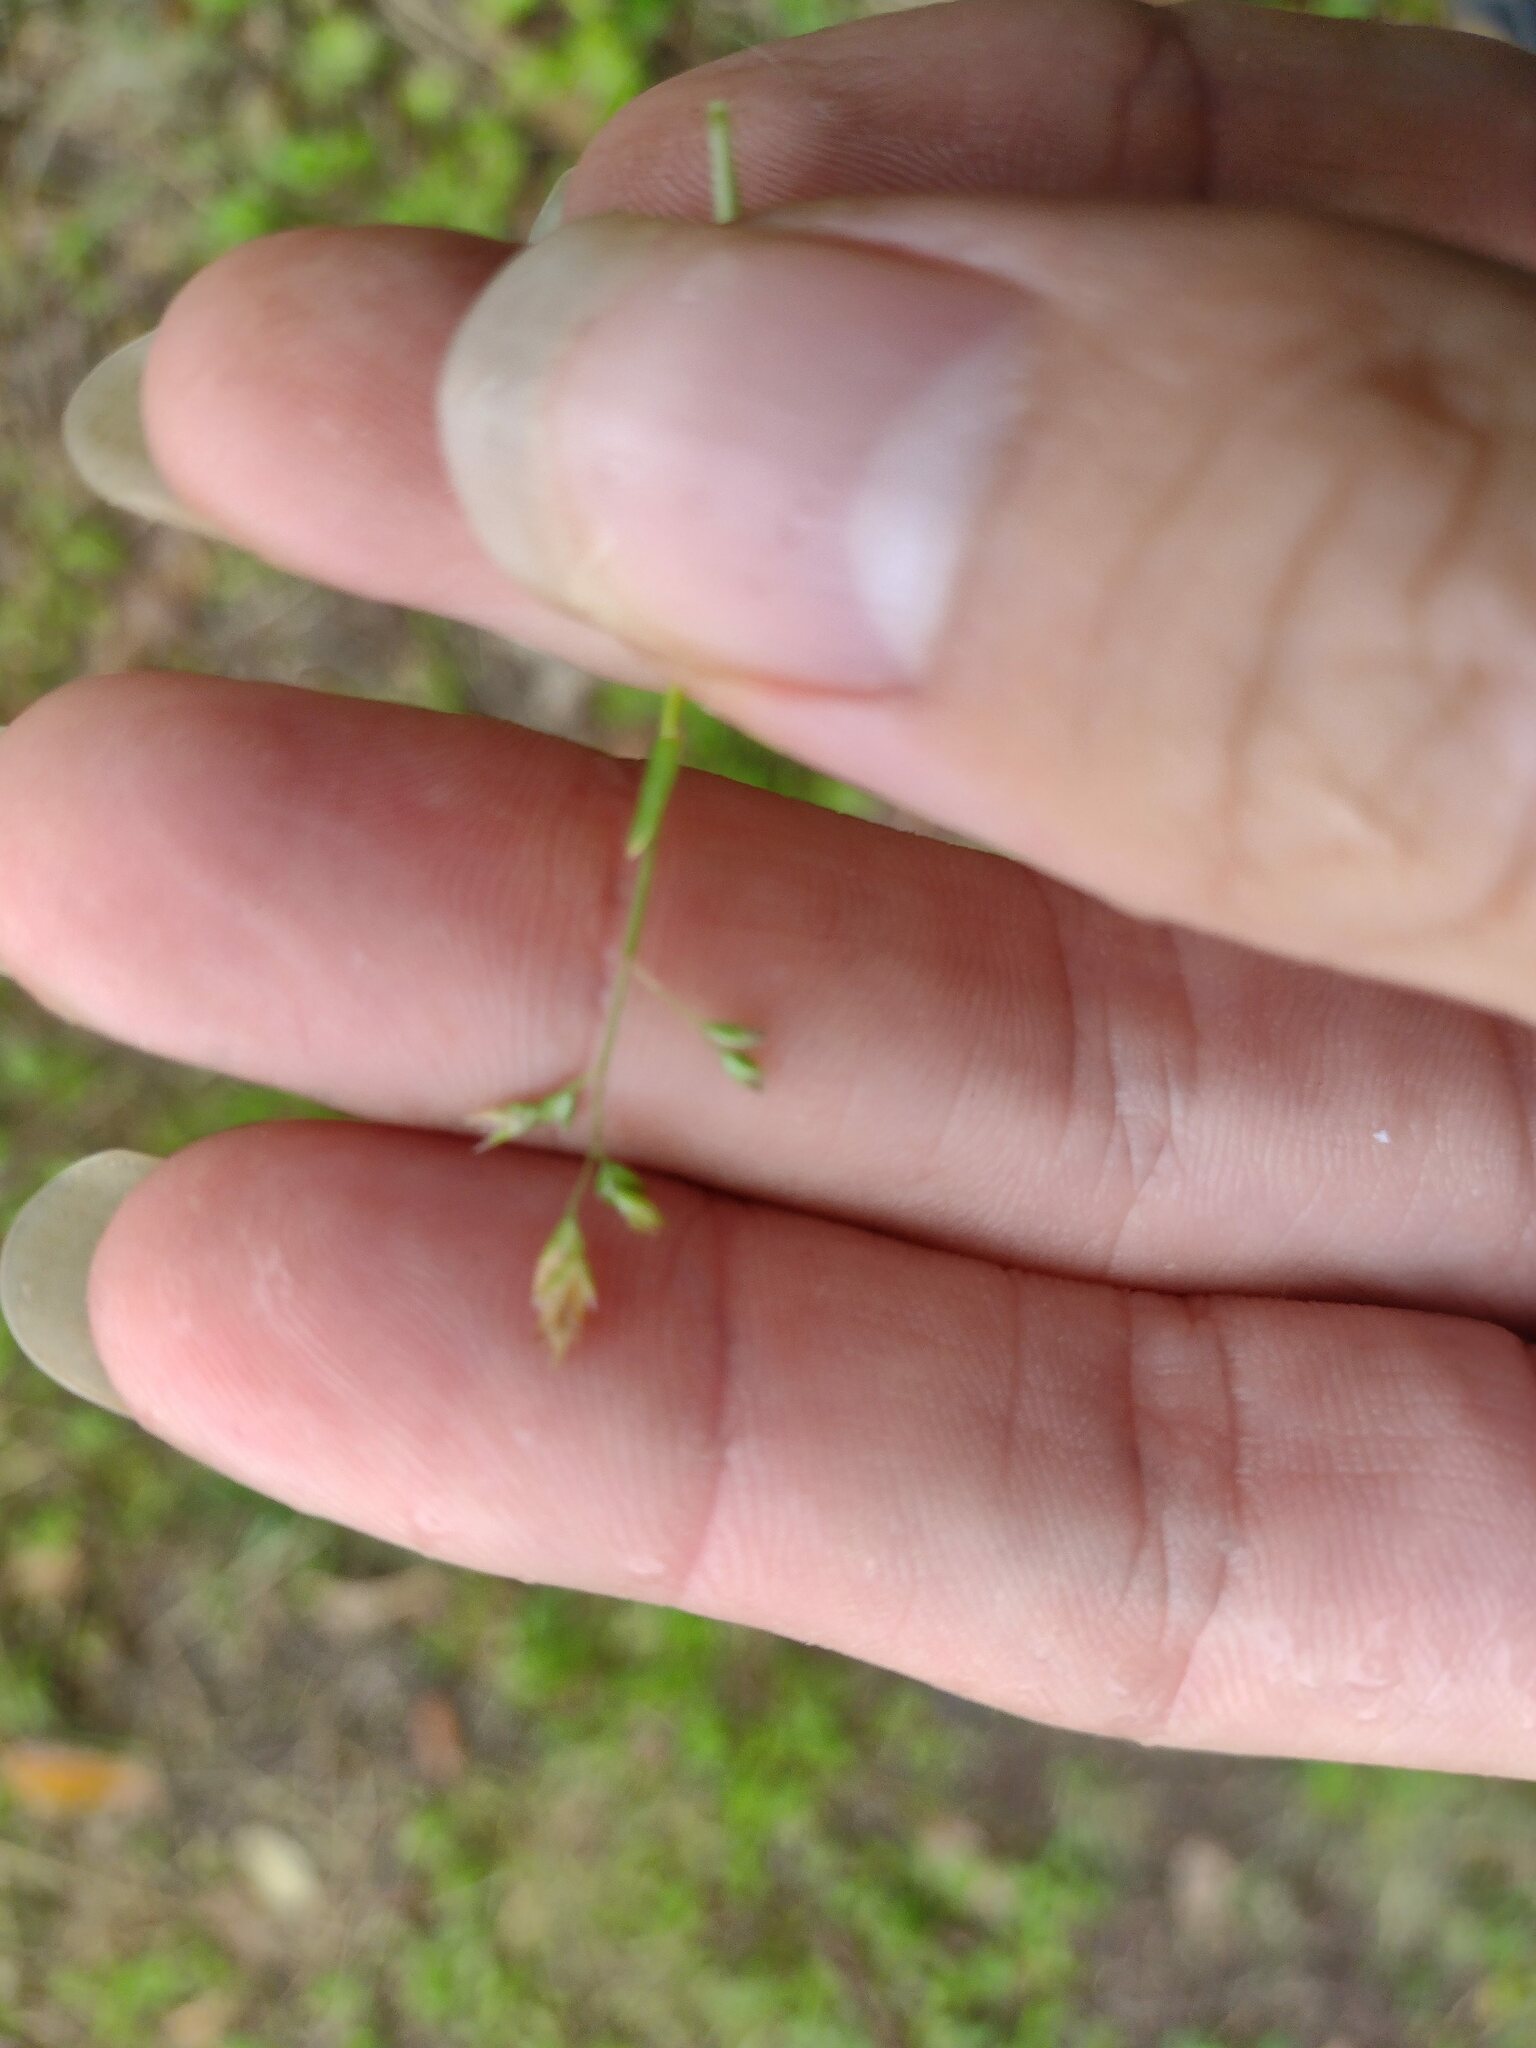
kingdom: Plantae
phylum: Tracheophyta
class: Liliopsida
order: Poales
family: Poaceae
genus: Poa
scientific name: Poa annua
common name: Annual bluegrass
